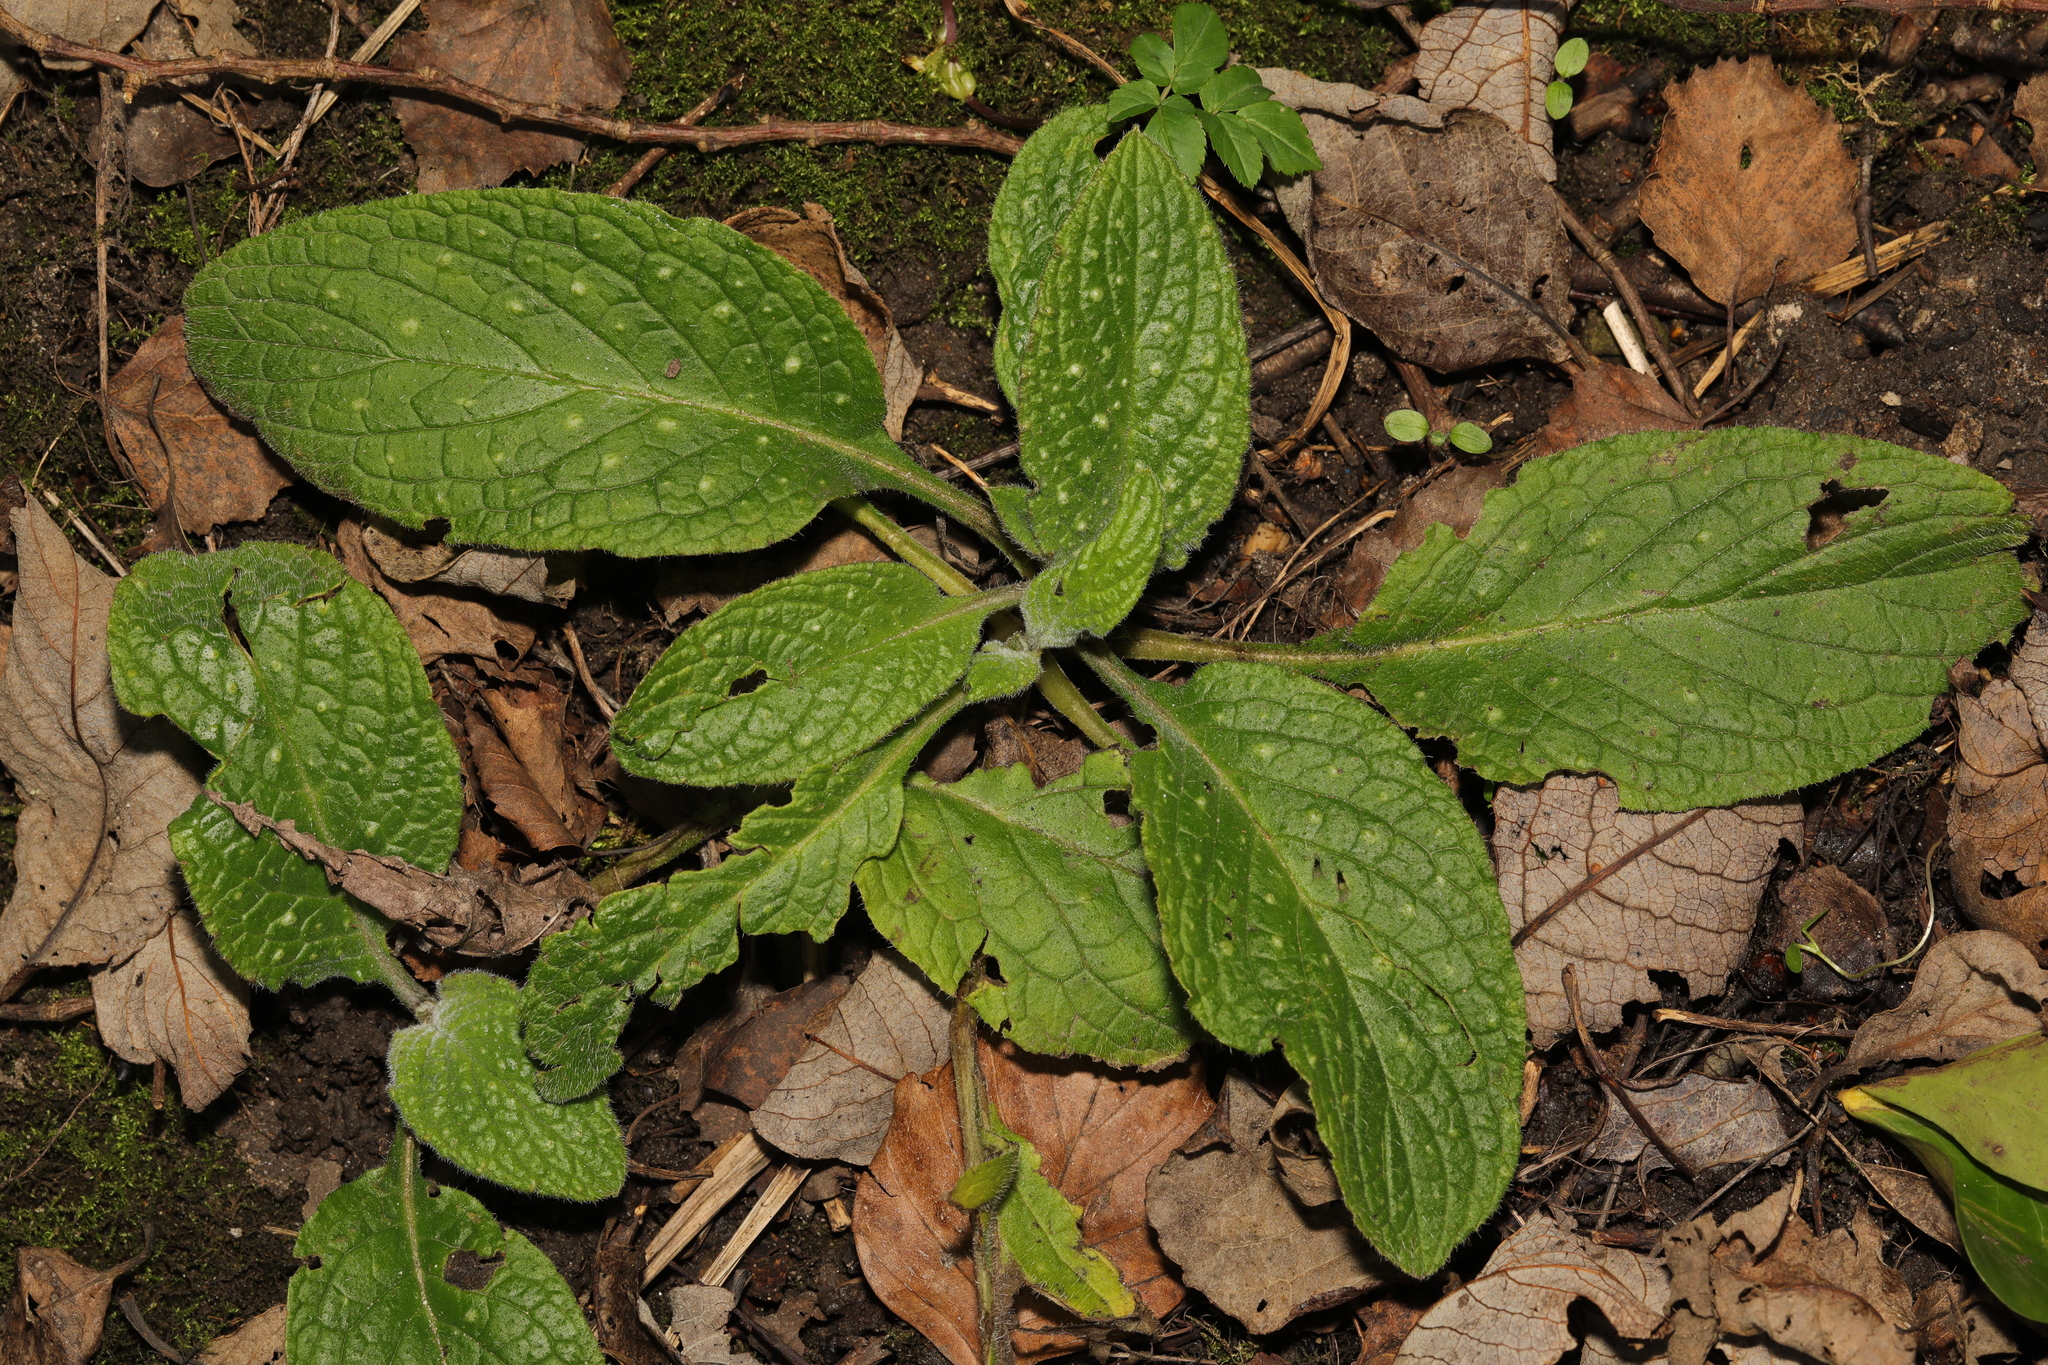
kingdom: Plantae
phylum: Tracheophyta
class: Magnoliopsida
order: Boraginales
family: Boraginaceae
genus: Pentaglottis
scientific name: Pentaglottis sempervirens
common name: Green alkanet
